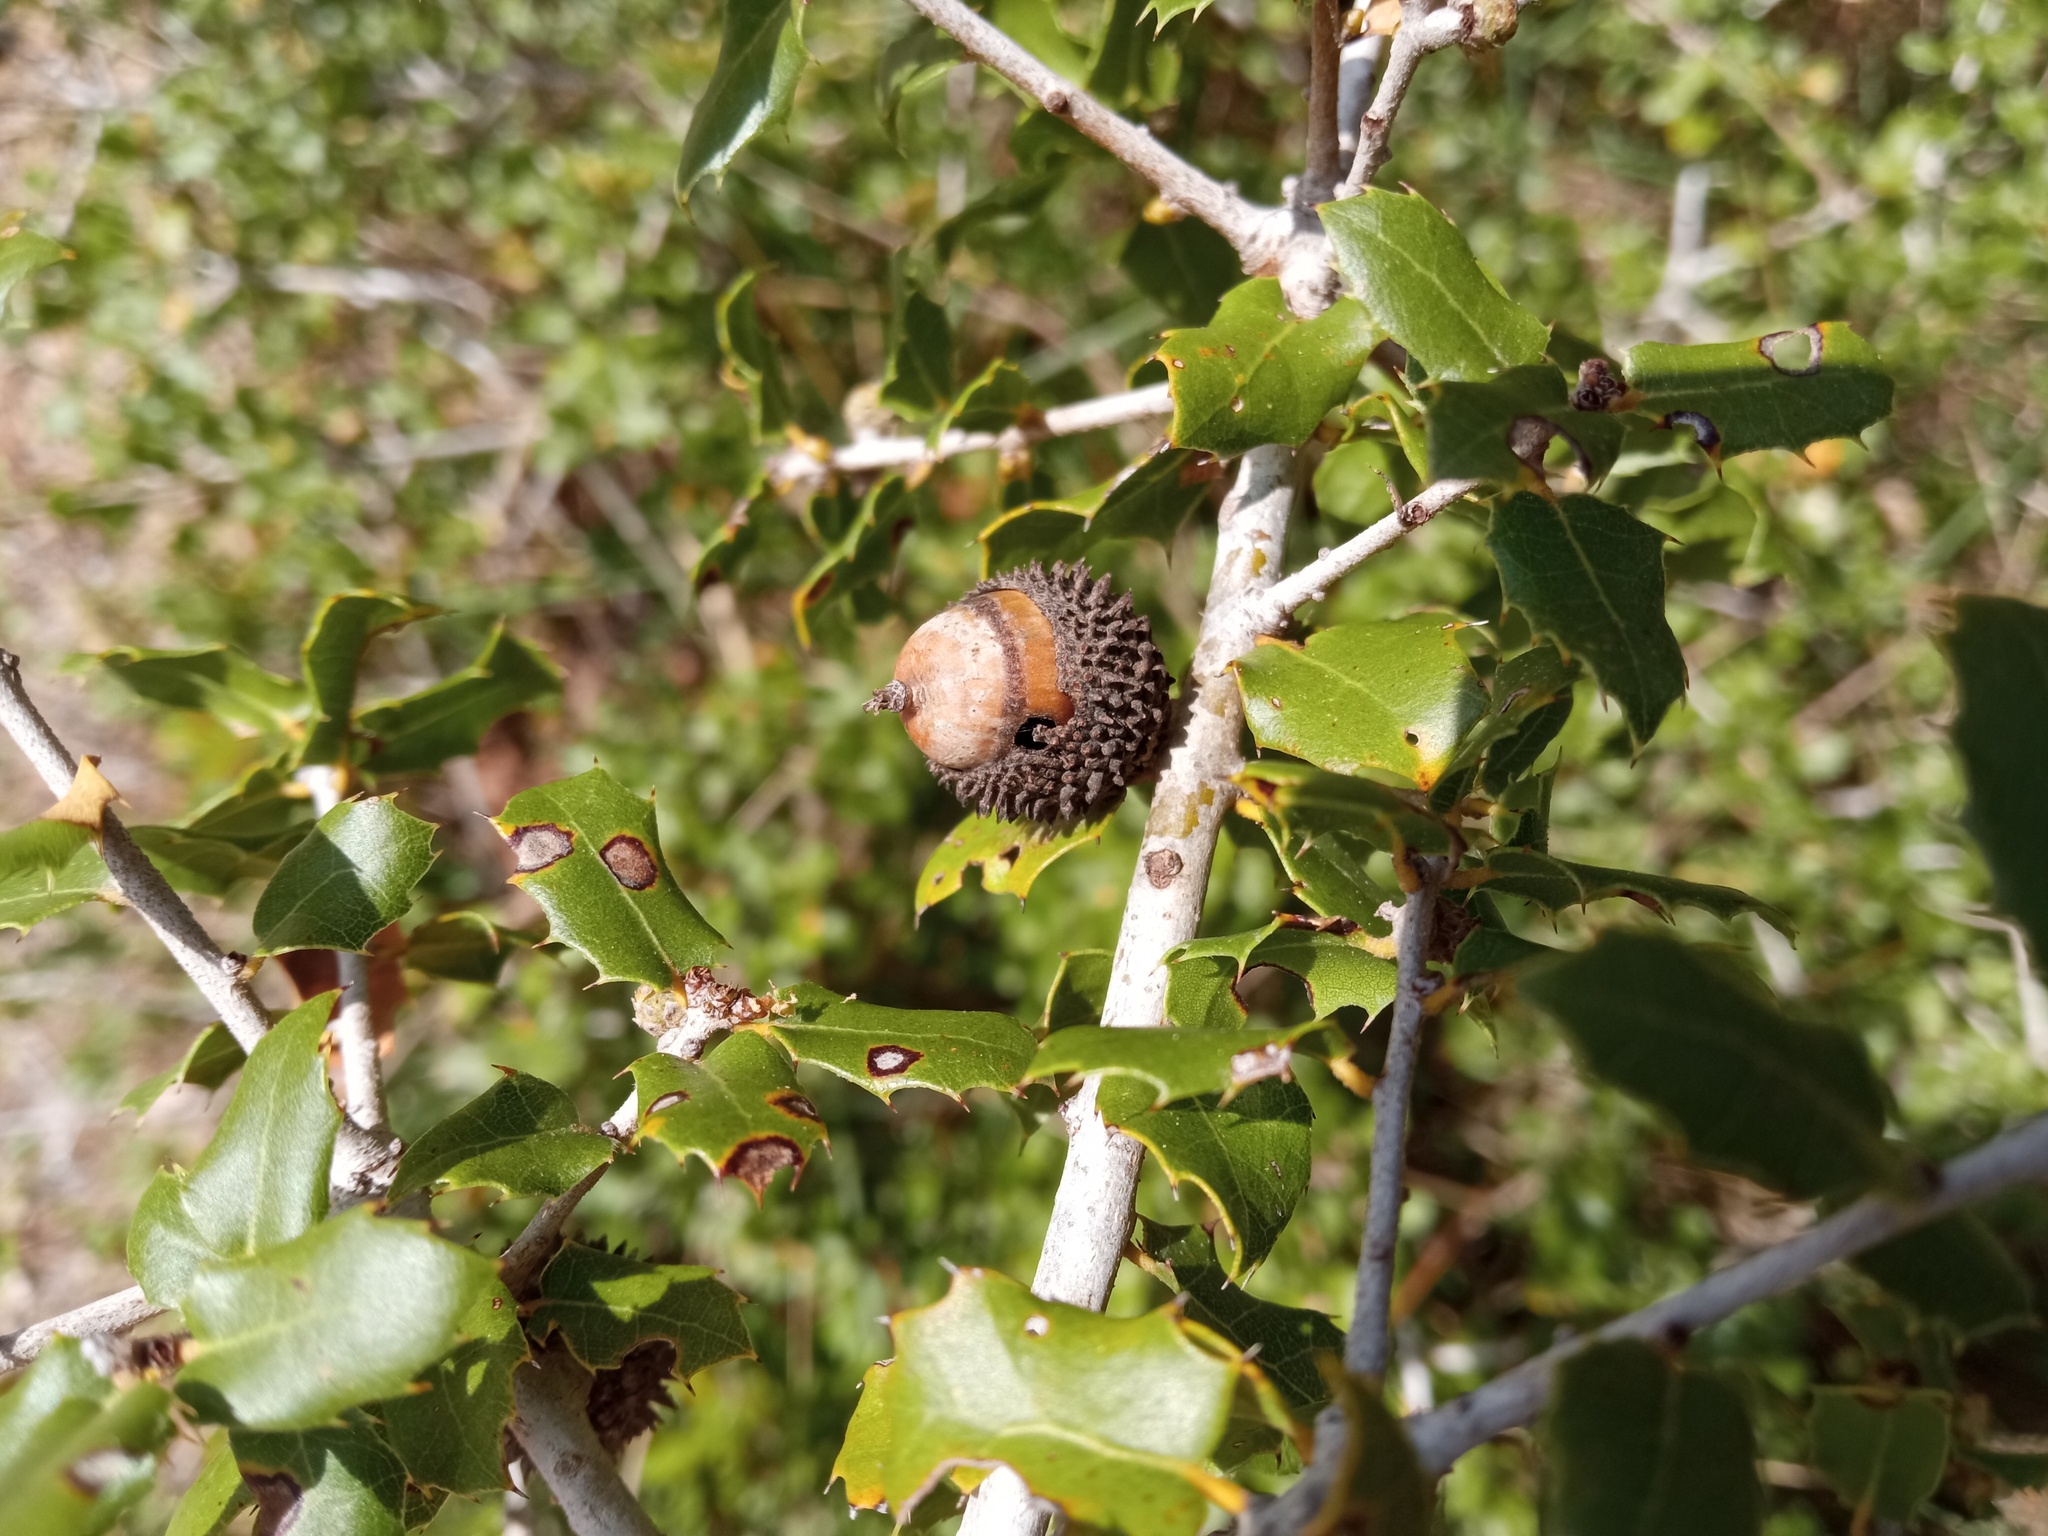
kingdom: Plantae
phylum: Tracheophyta
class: Magnoliopsida
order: Fagales
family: Fagaceae
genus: Quercus
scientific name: Quercus coccifera
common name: Kermes oak
